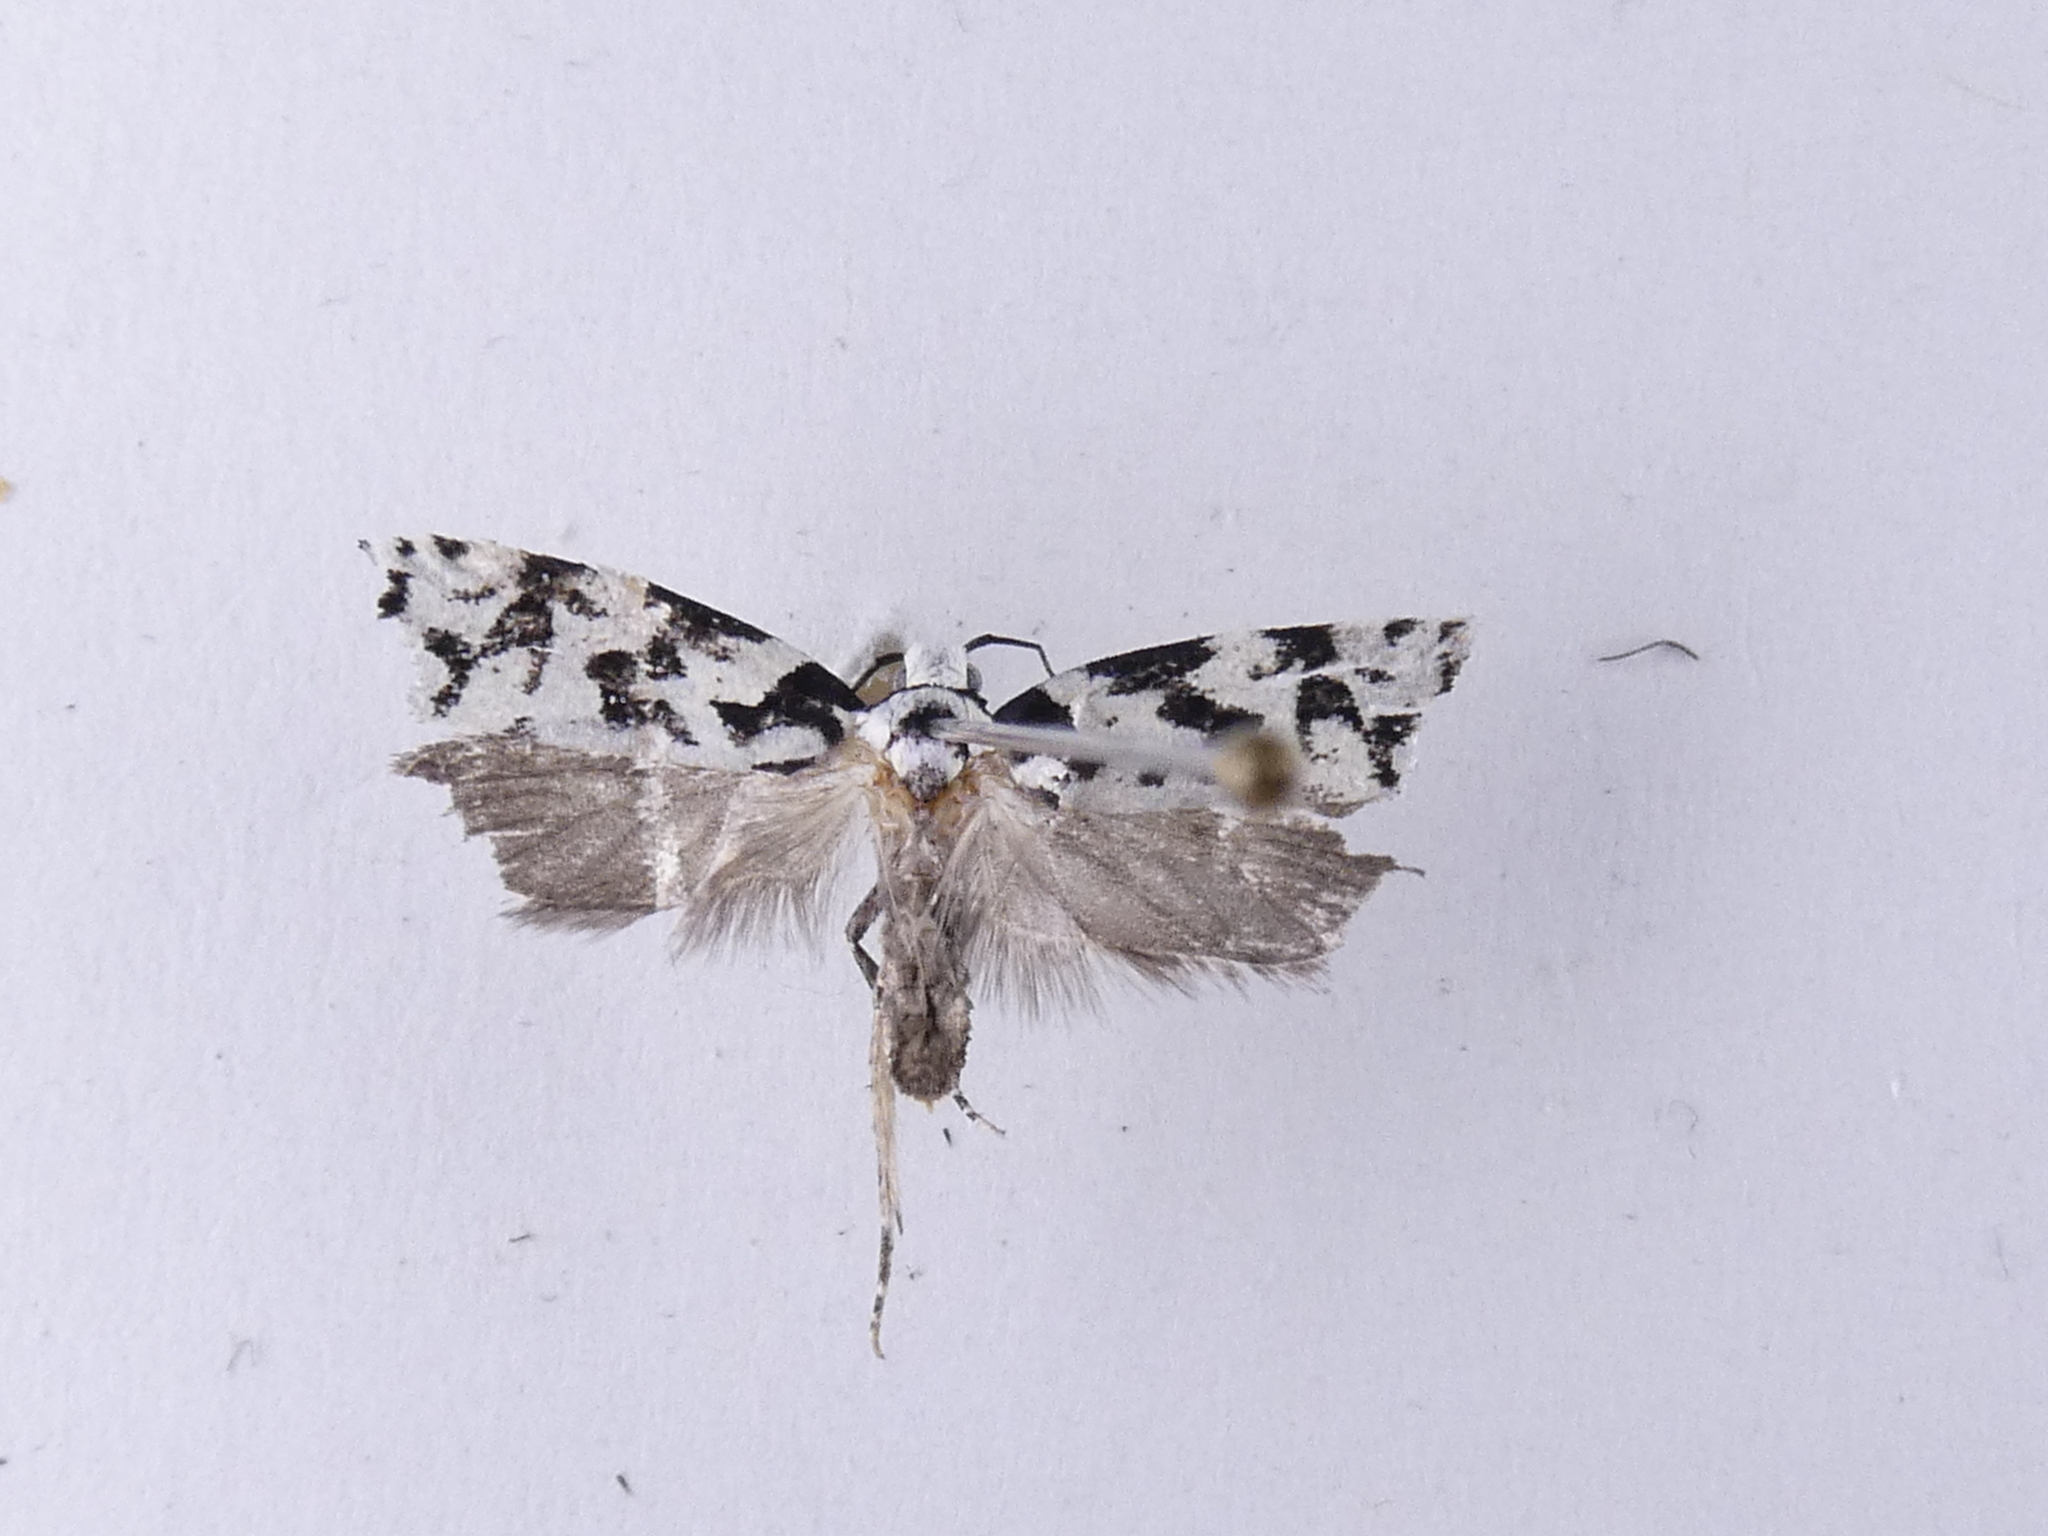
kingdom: Animalia
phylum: Arthropoda
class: Insecta
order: Lepidoptera
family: Oecophoridae
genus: Izatha
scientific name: Izatha
